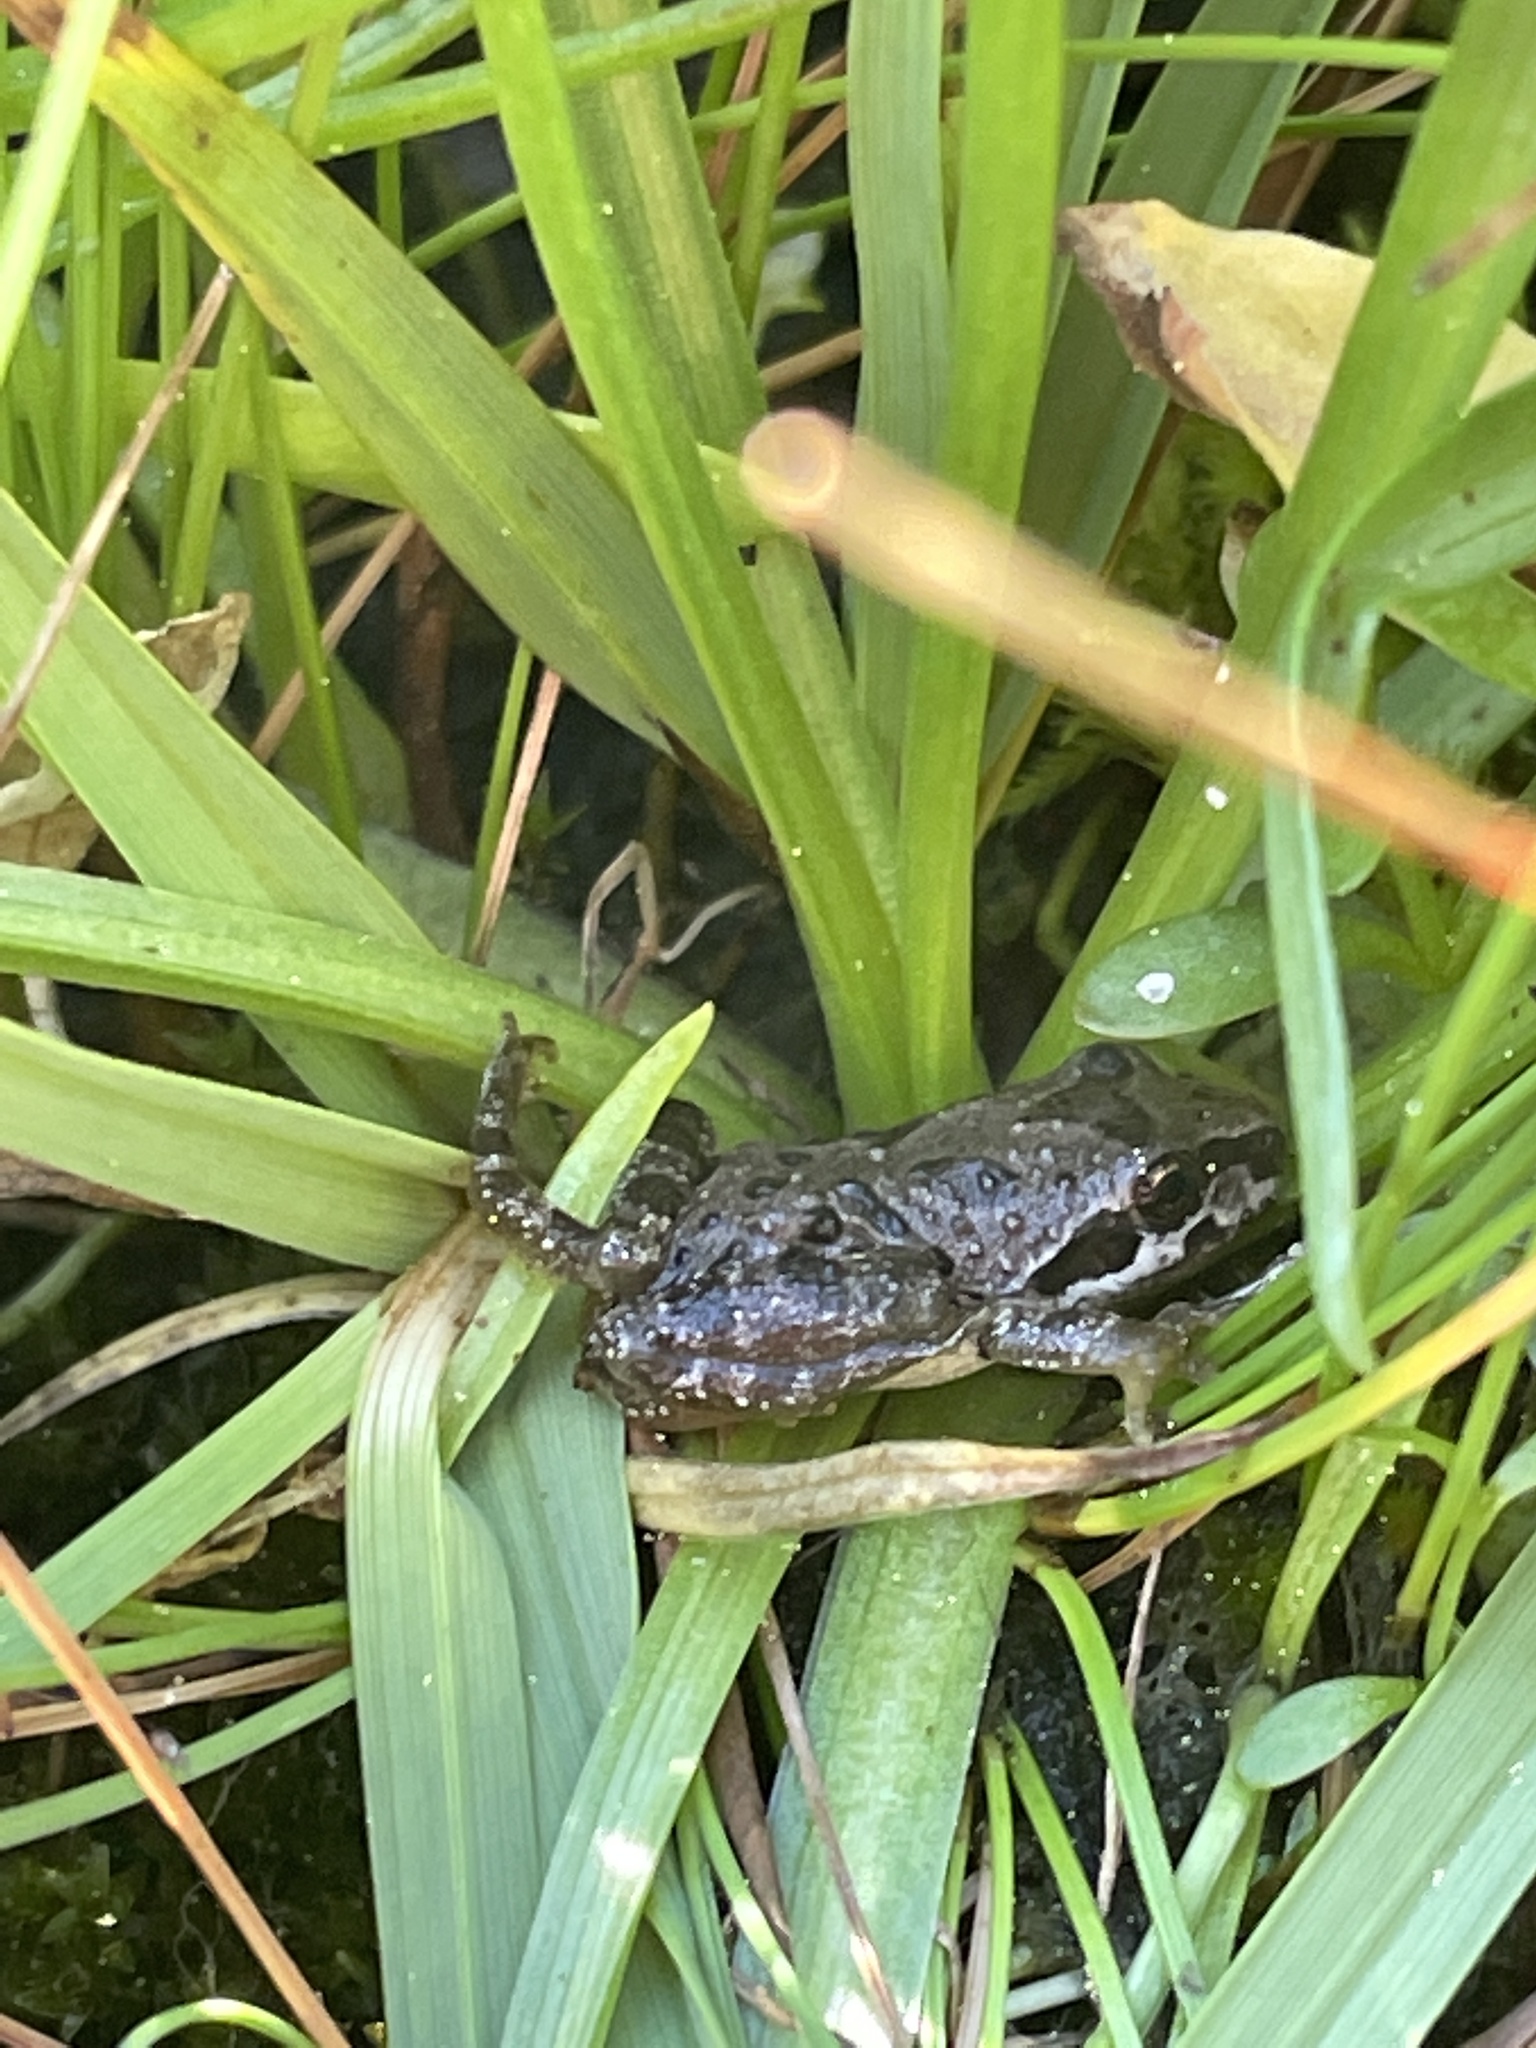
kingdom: Animalia
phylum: Chordata
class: Amphibia
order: Anura
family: Hylidae
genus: Pseudacris
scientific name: Pseudacris regilla
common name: Pacific chorus frog
